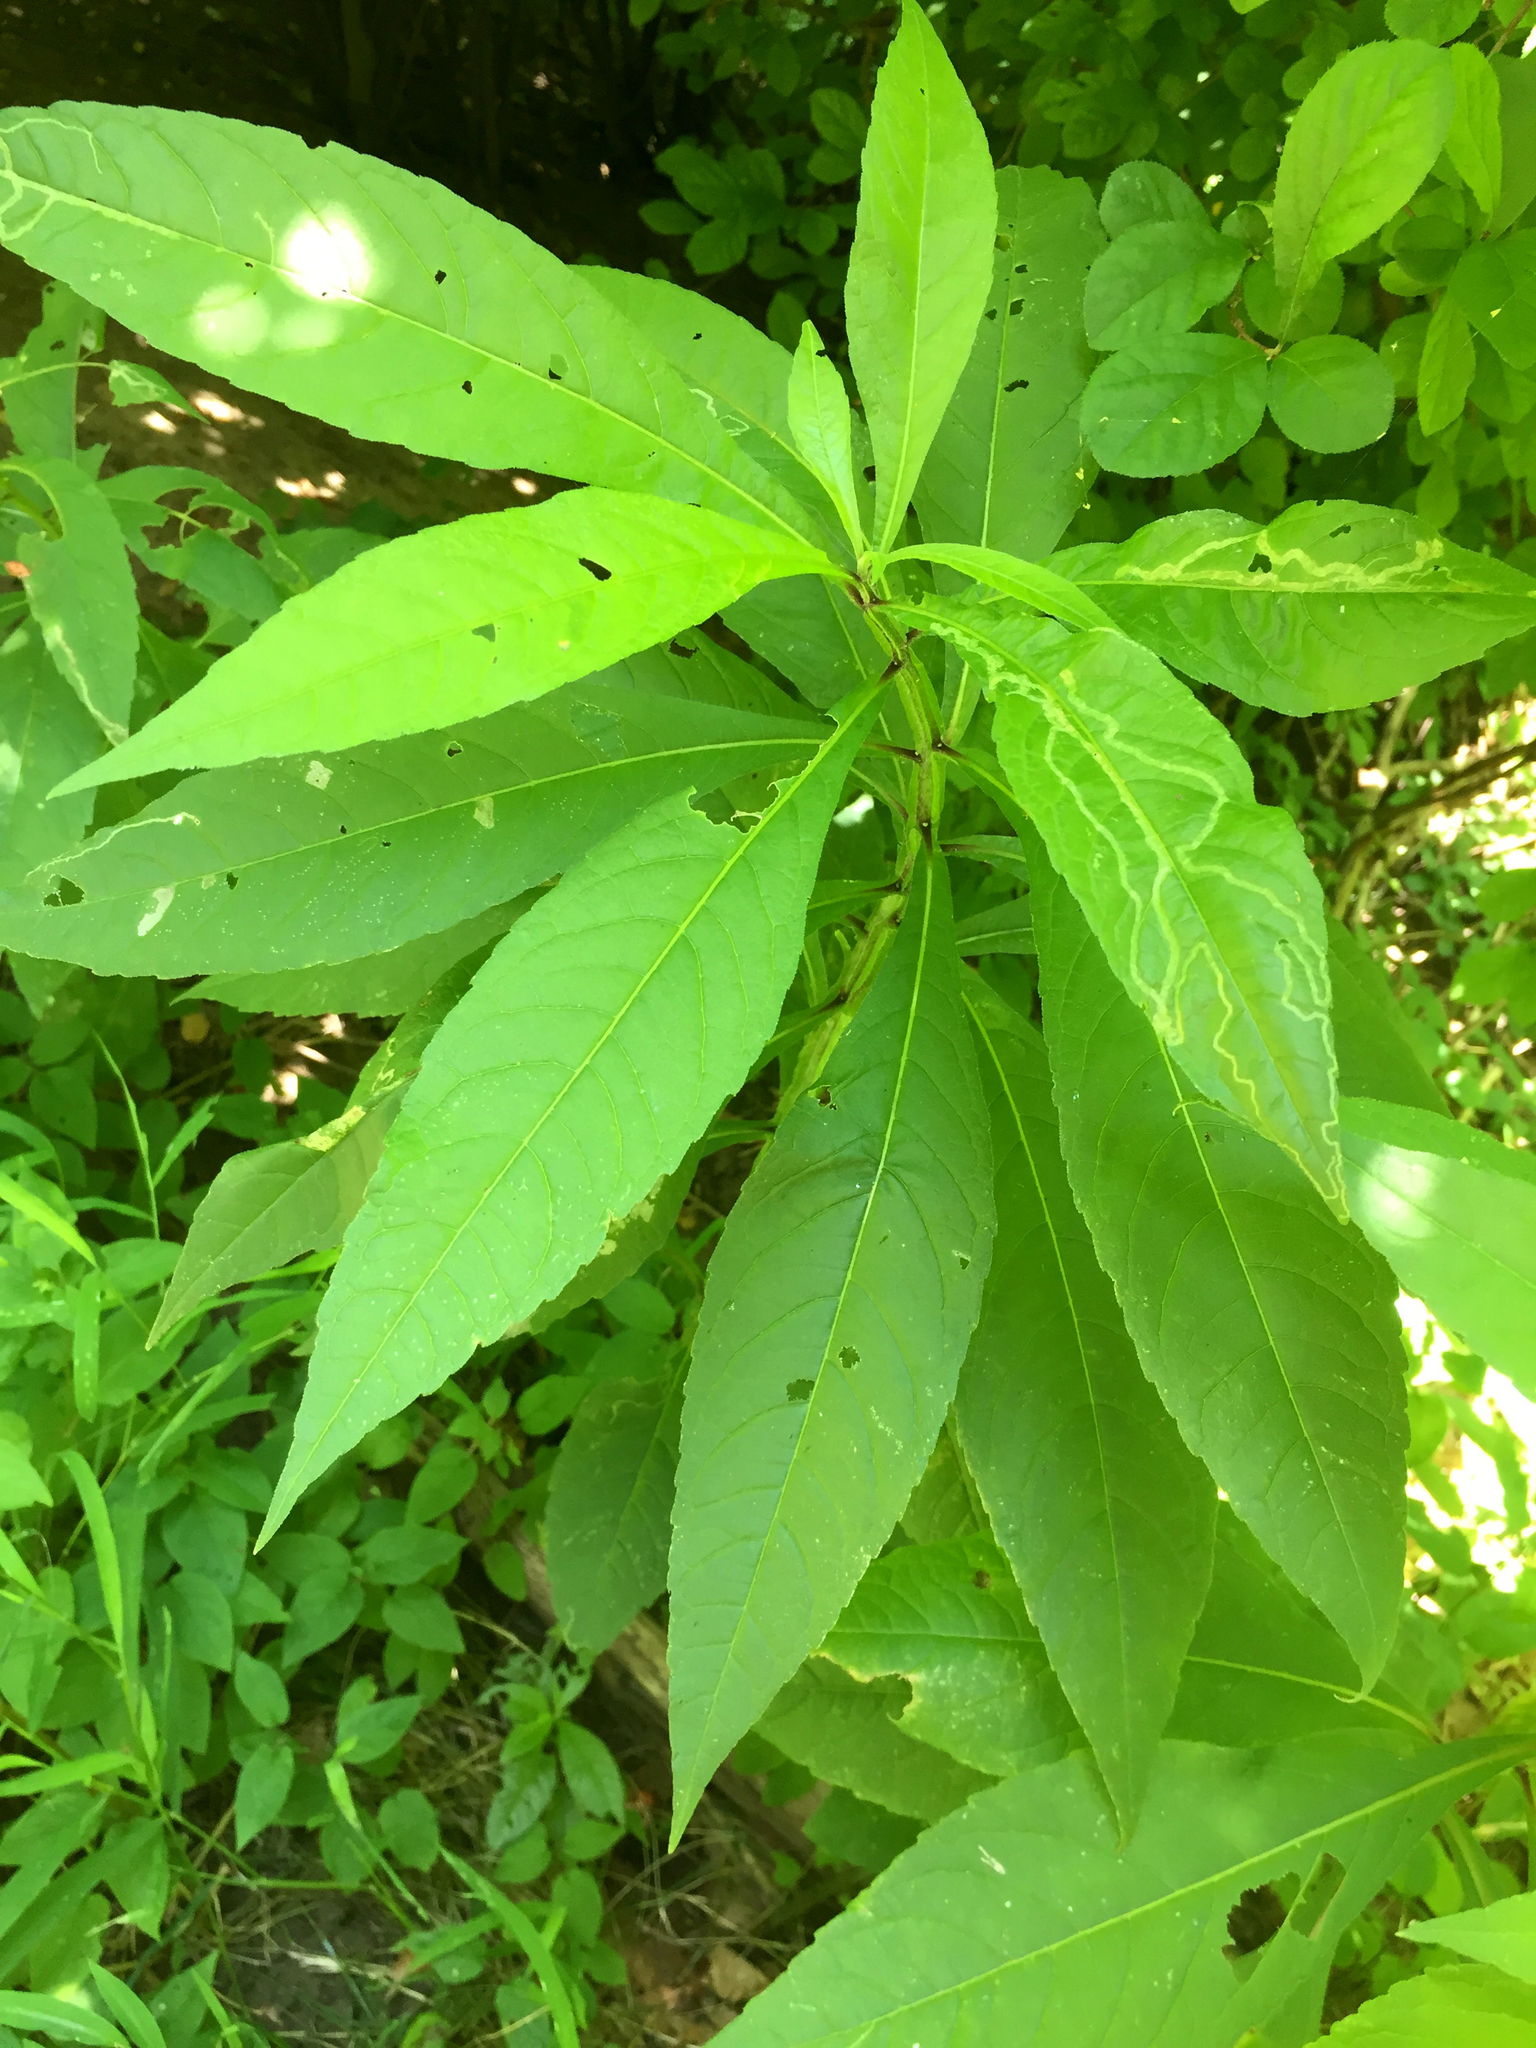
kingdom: Plantae
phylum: Tracheophyta
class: Magnoliopsida
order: Asterales
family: Asteraceae
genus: Verbesina
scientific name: Verbesina alternifolia
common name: Wingstem
